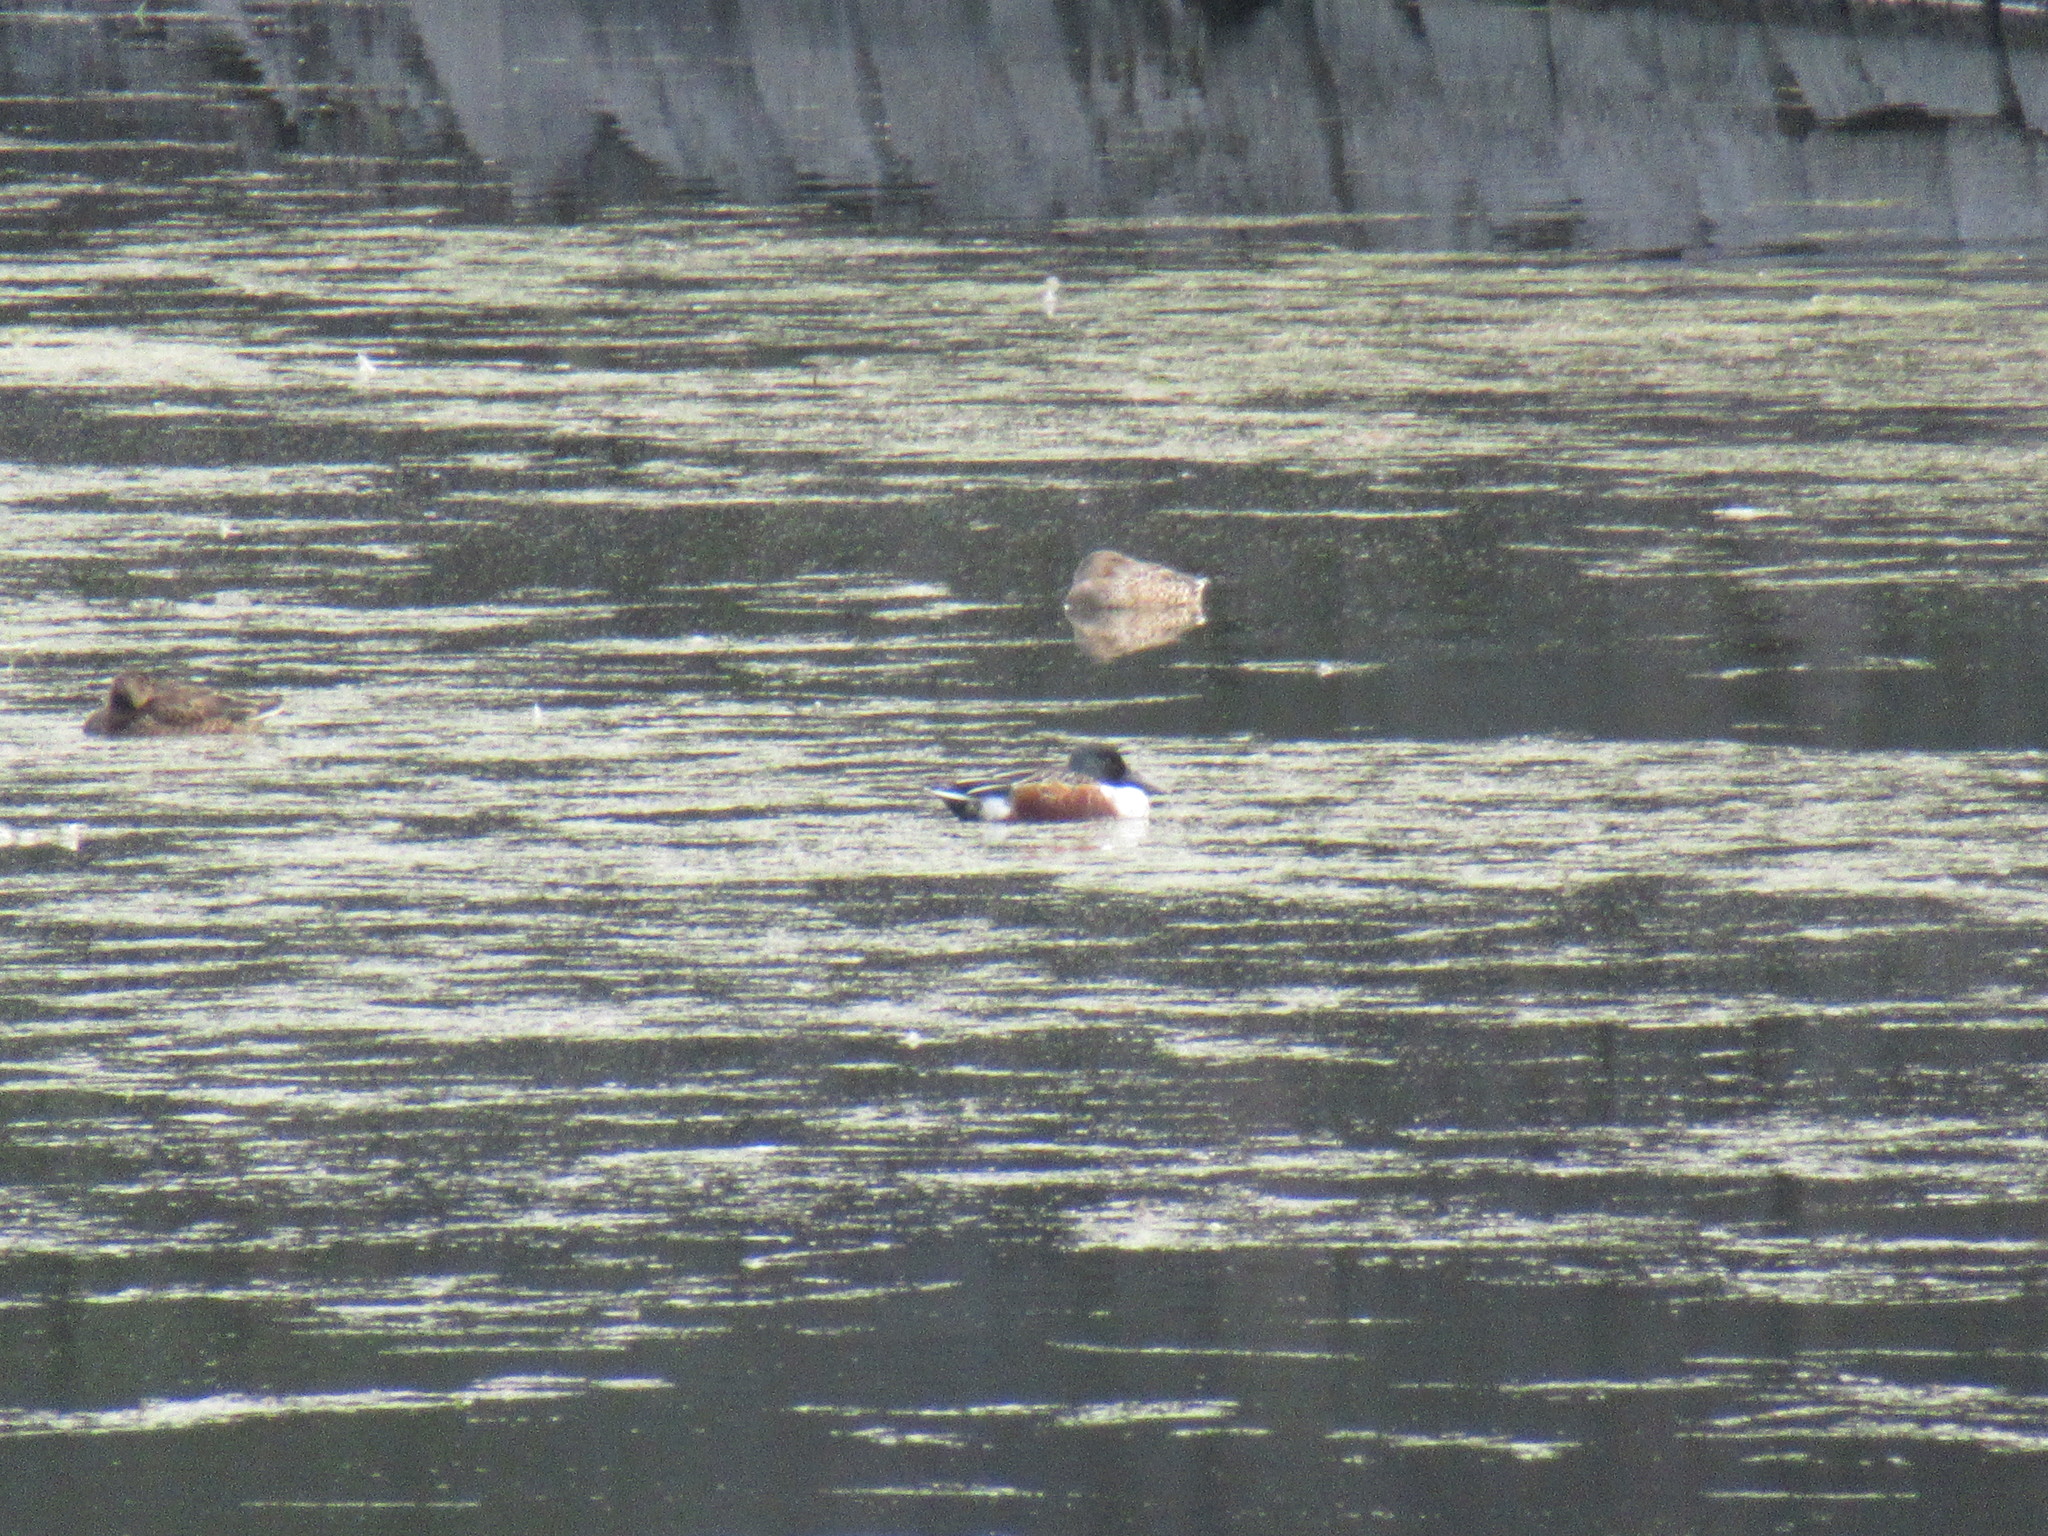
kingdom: Animalia
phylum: Chordata
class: Aves
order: Anseriformes
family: Anatidae
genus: Spatula
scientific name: Spatula clypeata
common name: Northern shoveler
